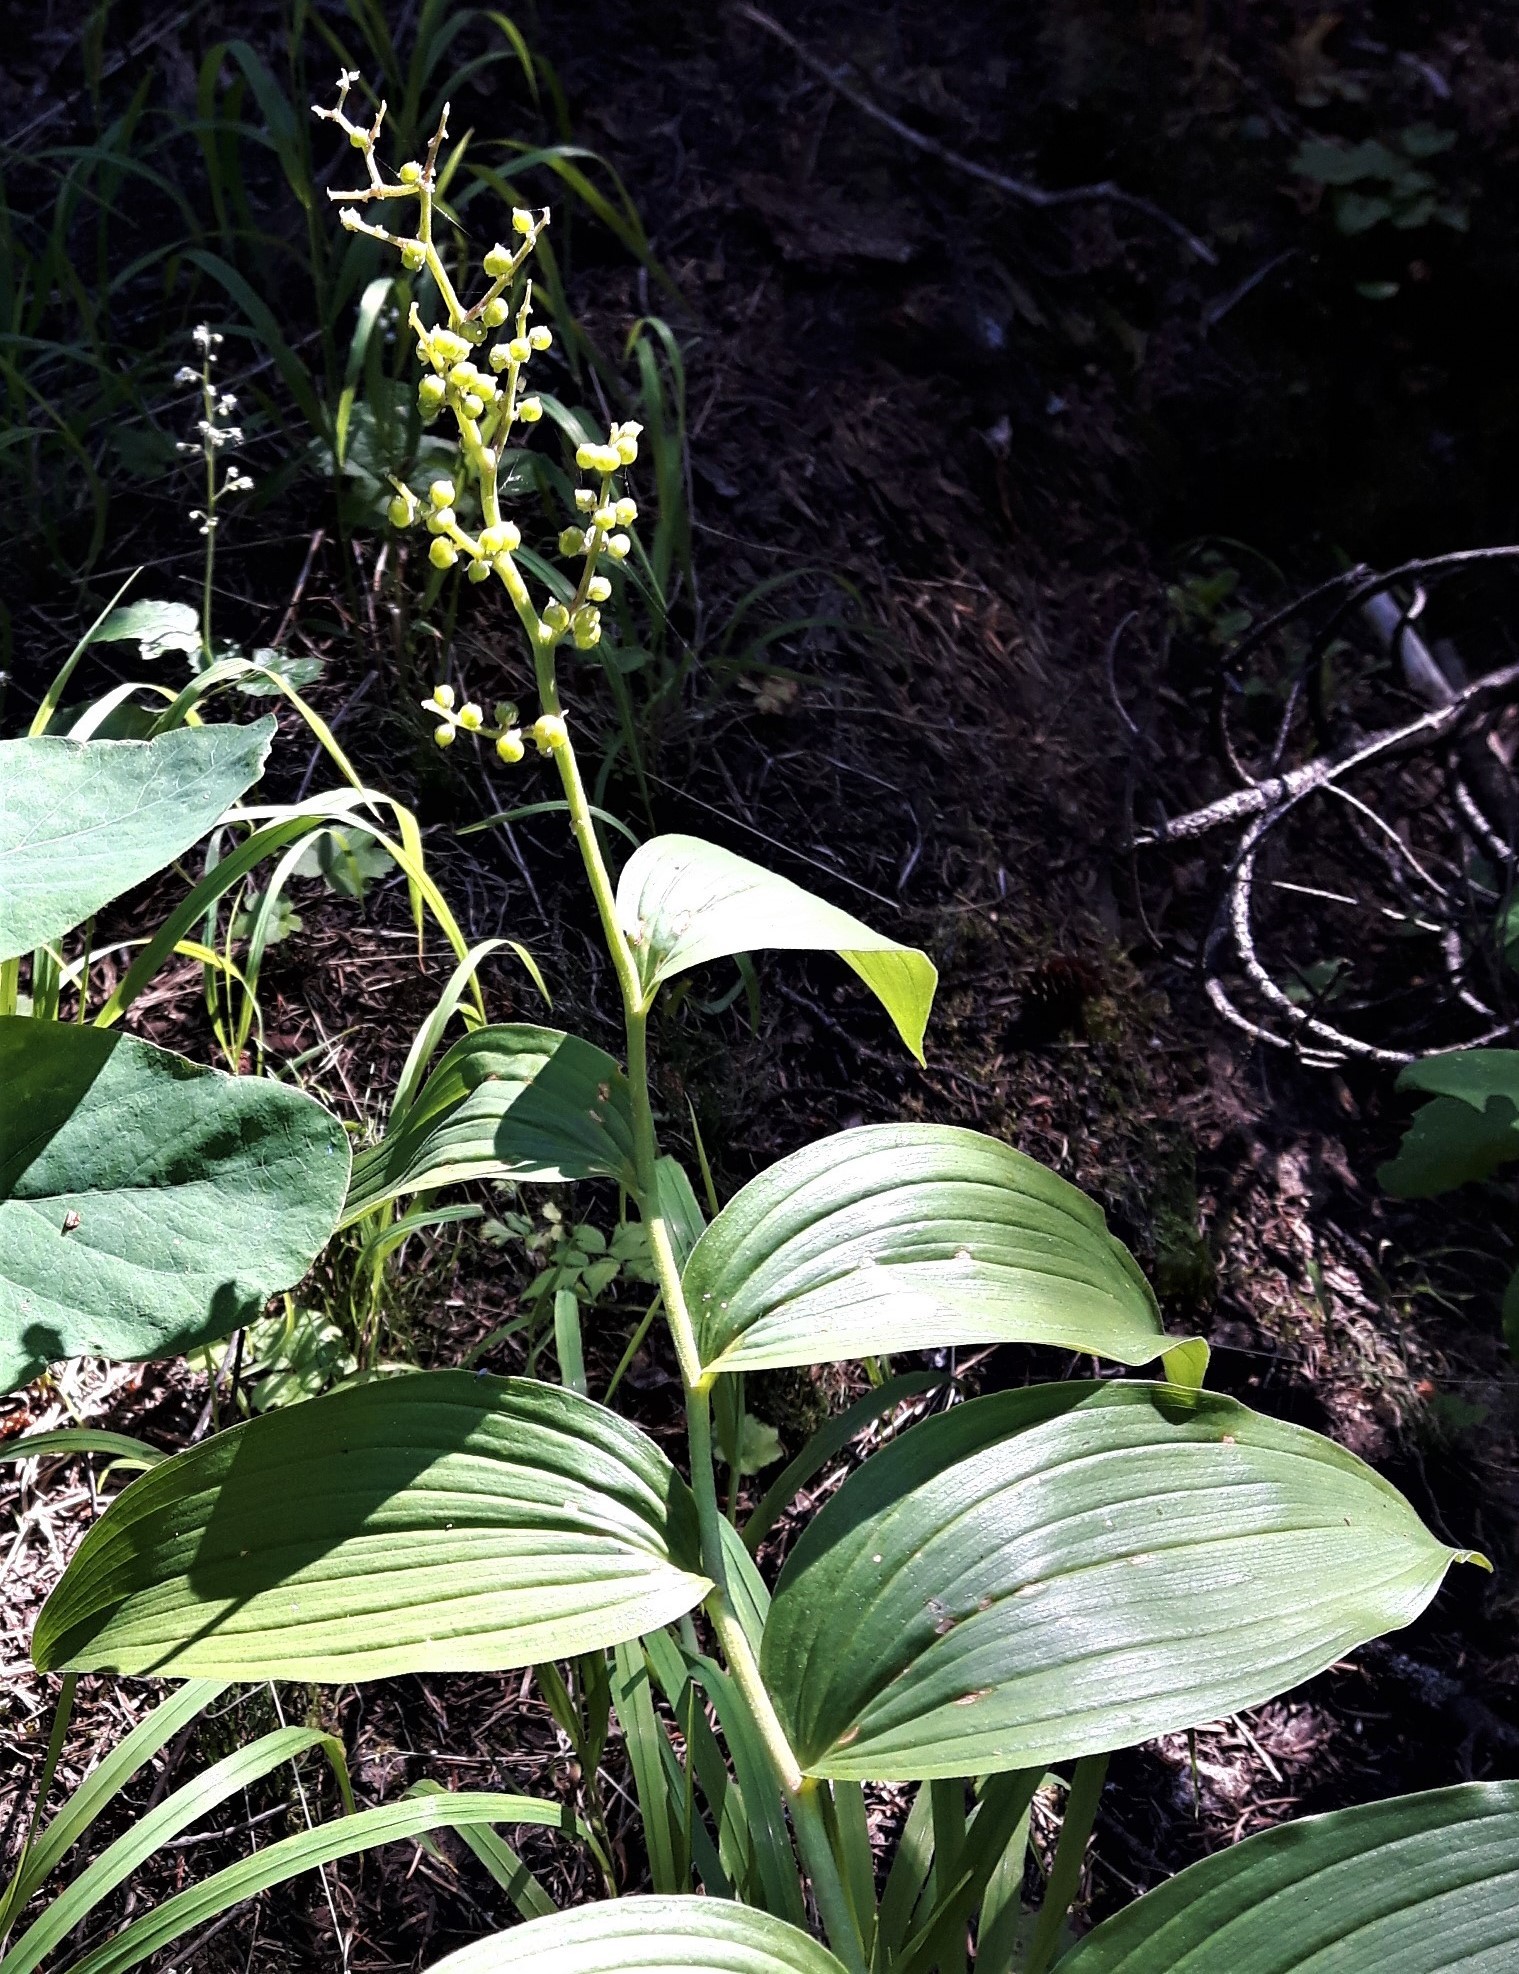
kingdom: Plantae
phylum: Tracheophyta
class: Liliopsida
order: Asparagales
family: Asparagaceae
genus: Maianthemum
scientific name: Maianthemum racemosum
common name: False spikenard
